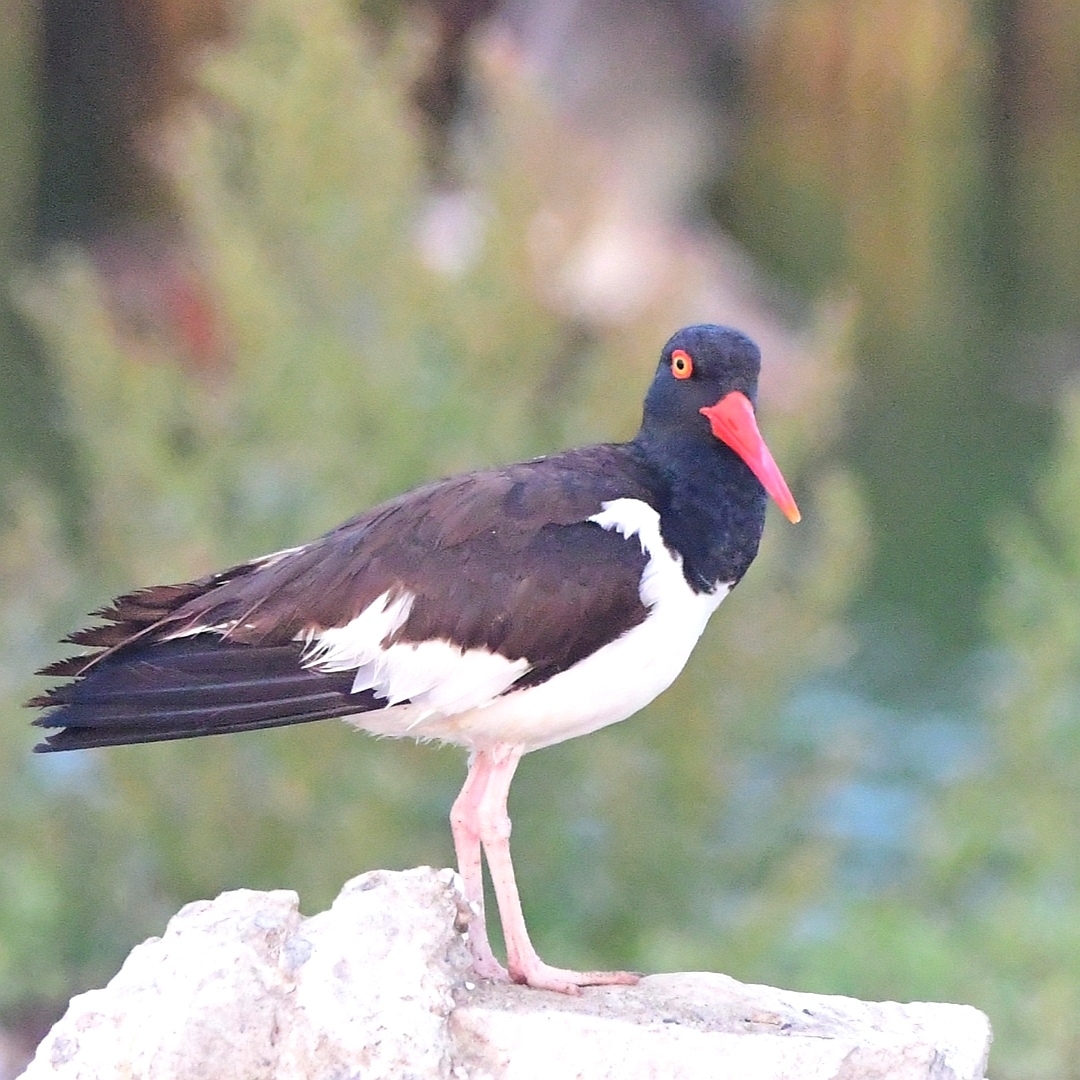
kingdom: Animalia
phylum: Chordata
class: Aves
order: Charadriiformes
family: Haematopodidae
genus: Haematopus
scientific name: Haematopus palliatus
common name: American oystercatcher
